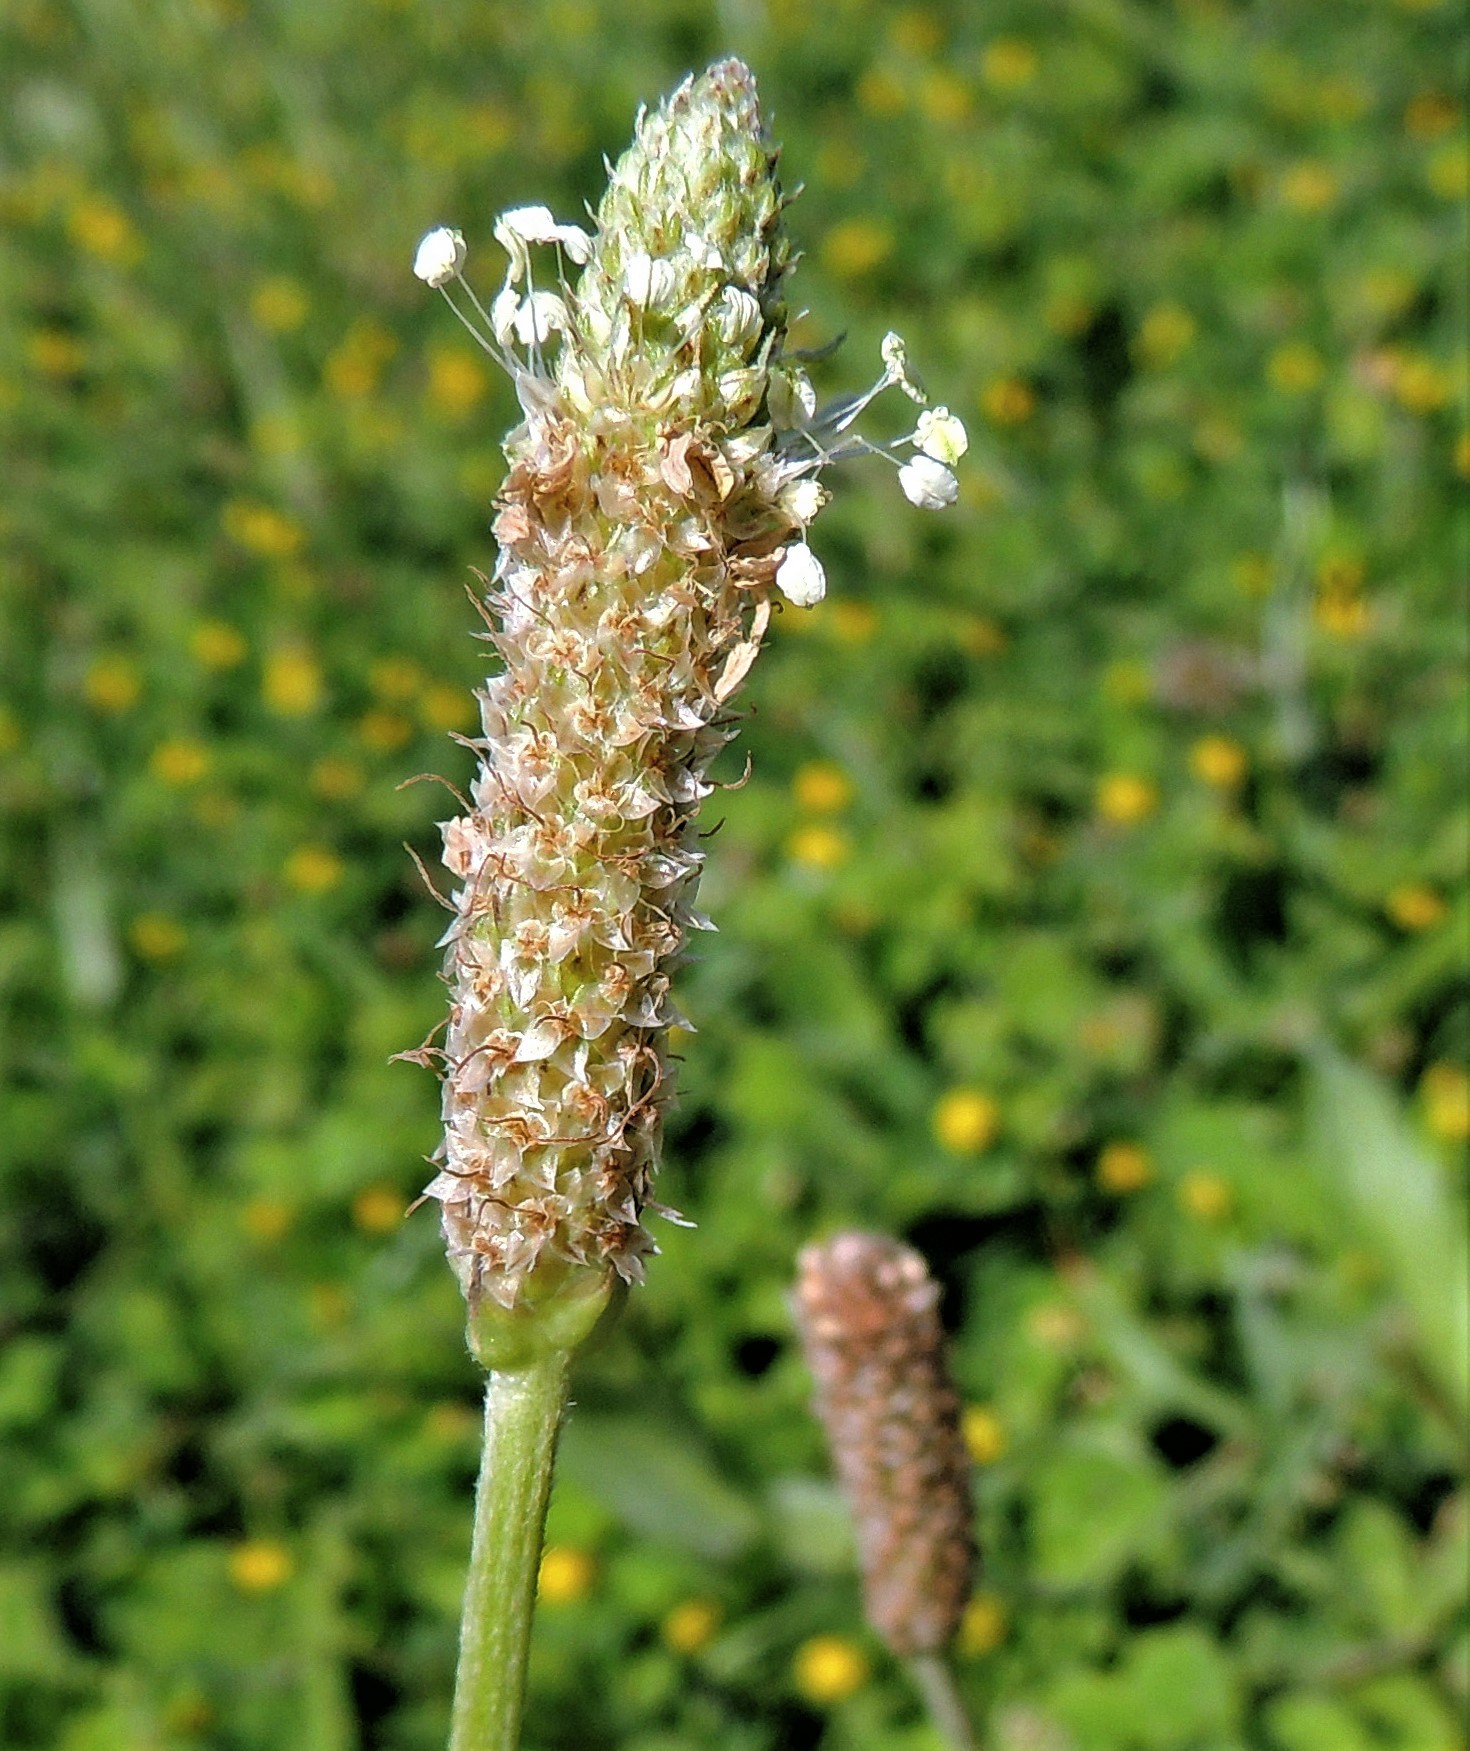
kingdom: Plantae
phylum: Tracheophyta
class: Magnoliopsida
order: Lamiales
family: Plantaginaceae
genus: Plantago
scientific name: Plantago lanceolata
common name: Ribwort plantain
